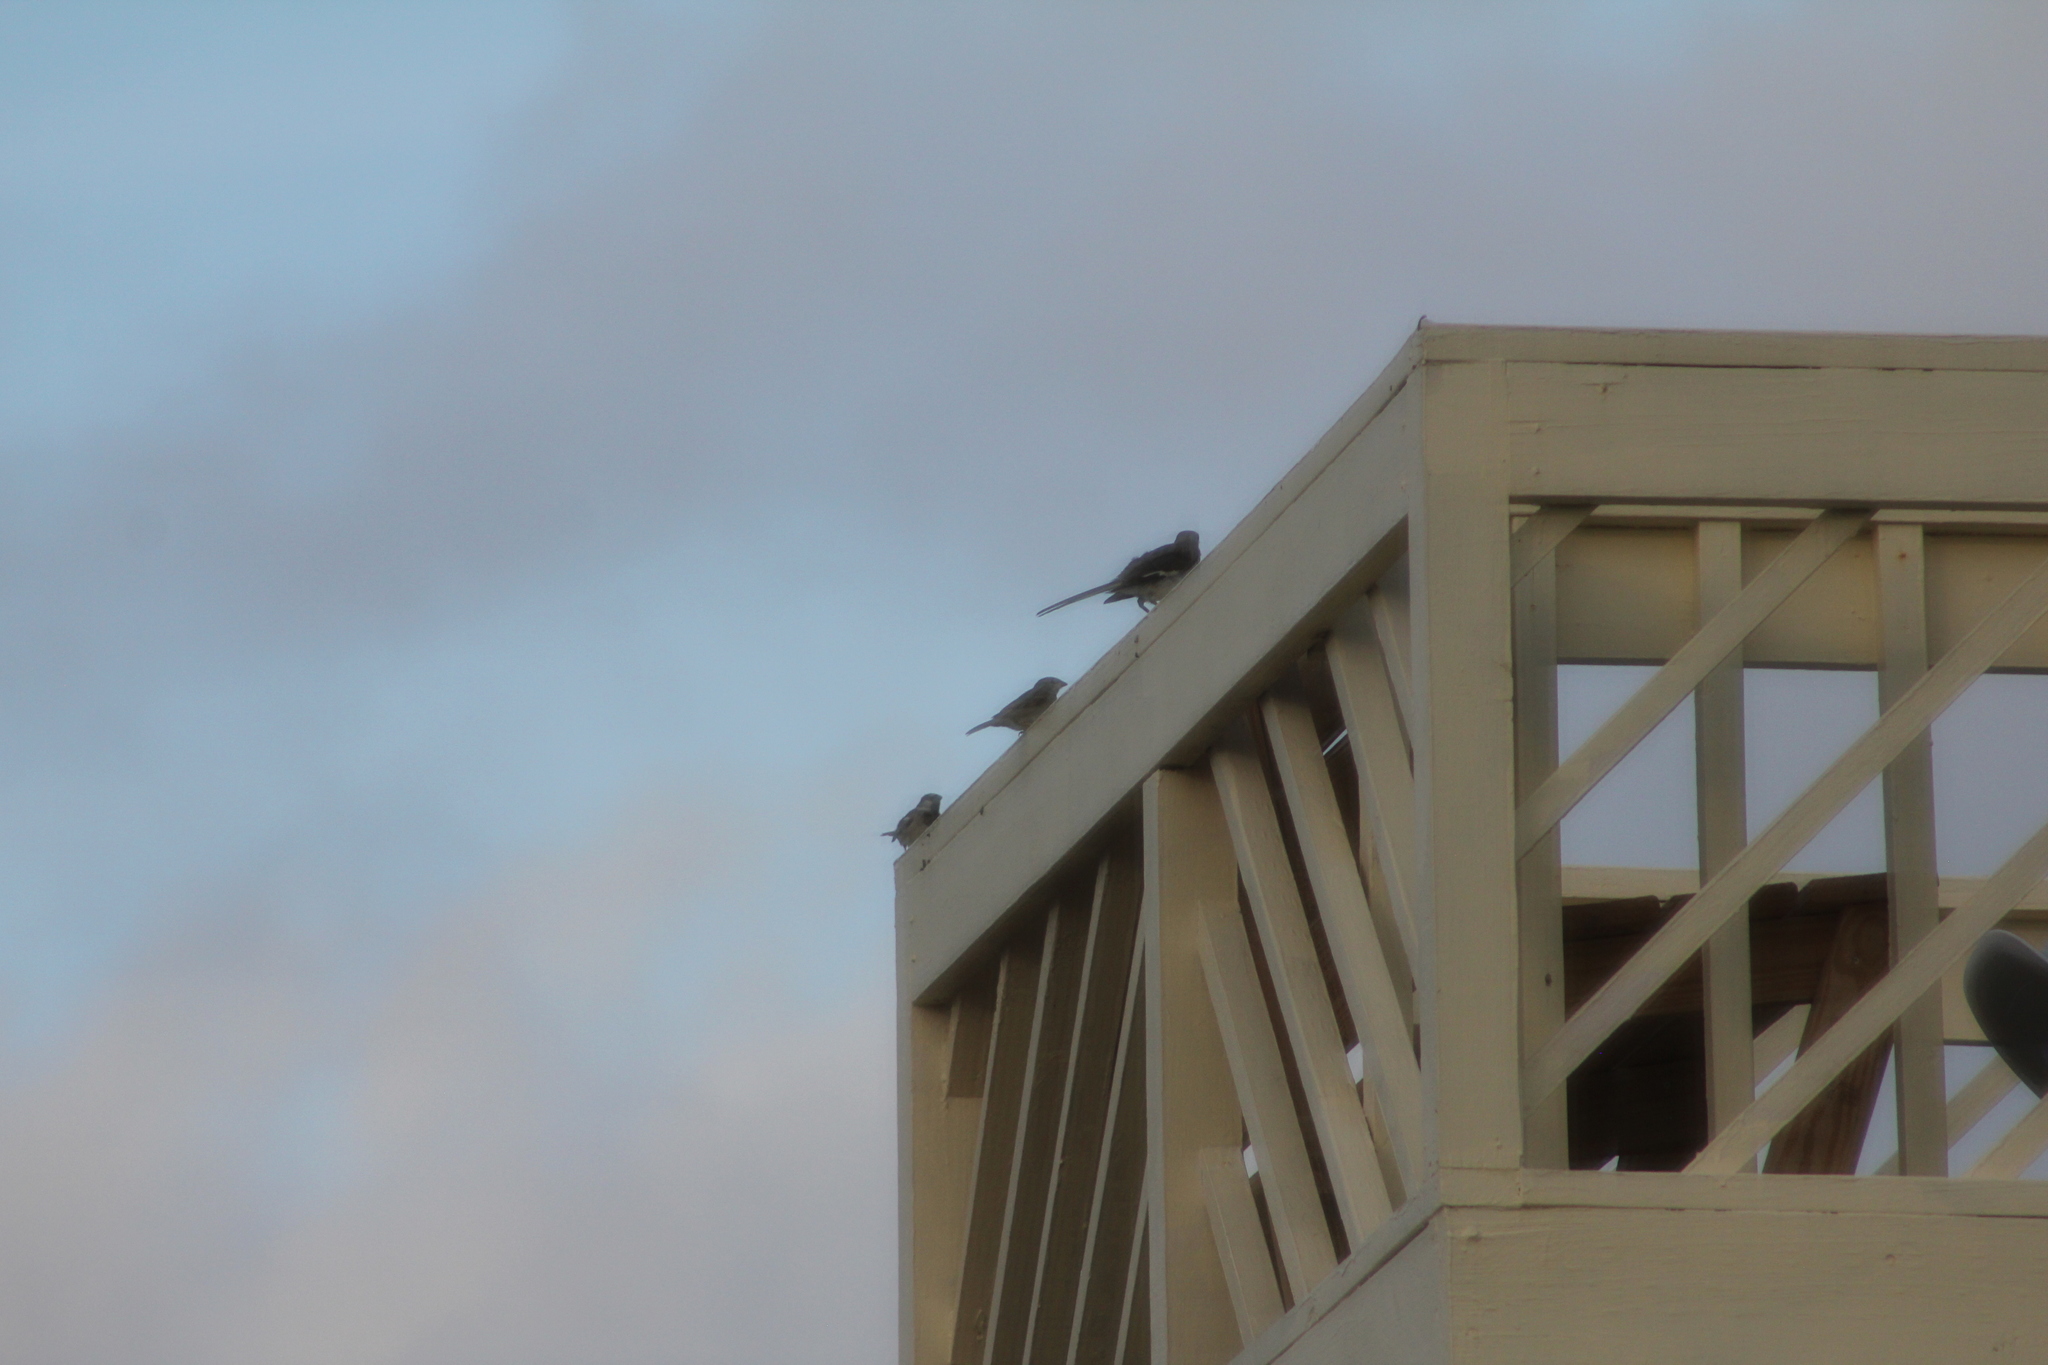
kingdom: Animalia
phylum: Chordata
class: Aves
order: Passeriformes
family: Passeridae
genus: Passer
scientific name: Passer domesticus
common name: House sparrow
